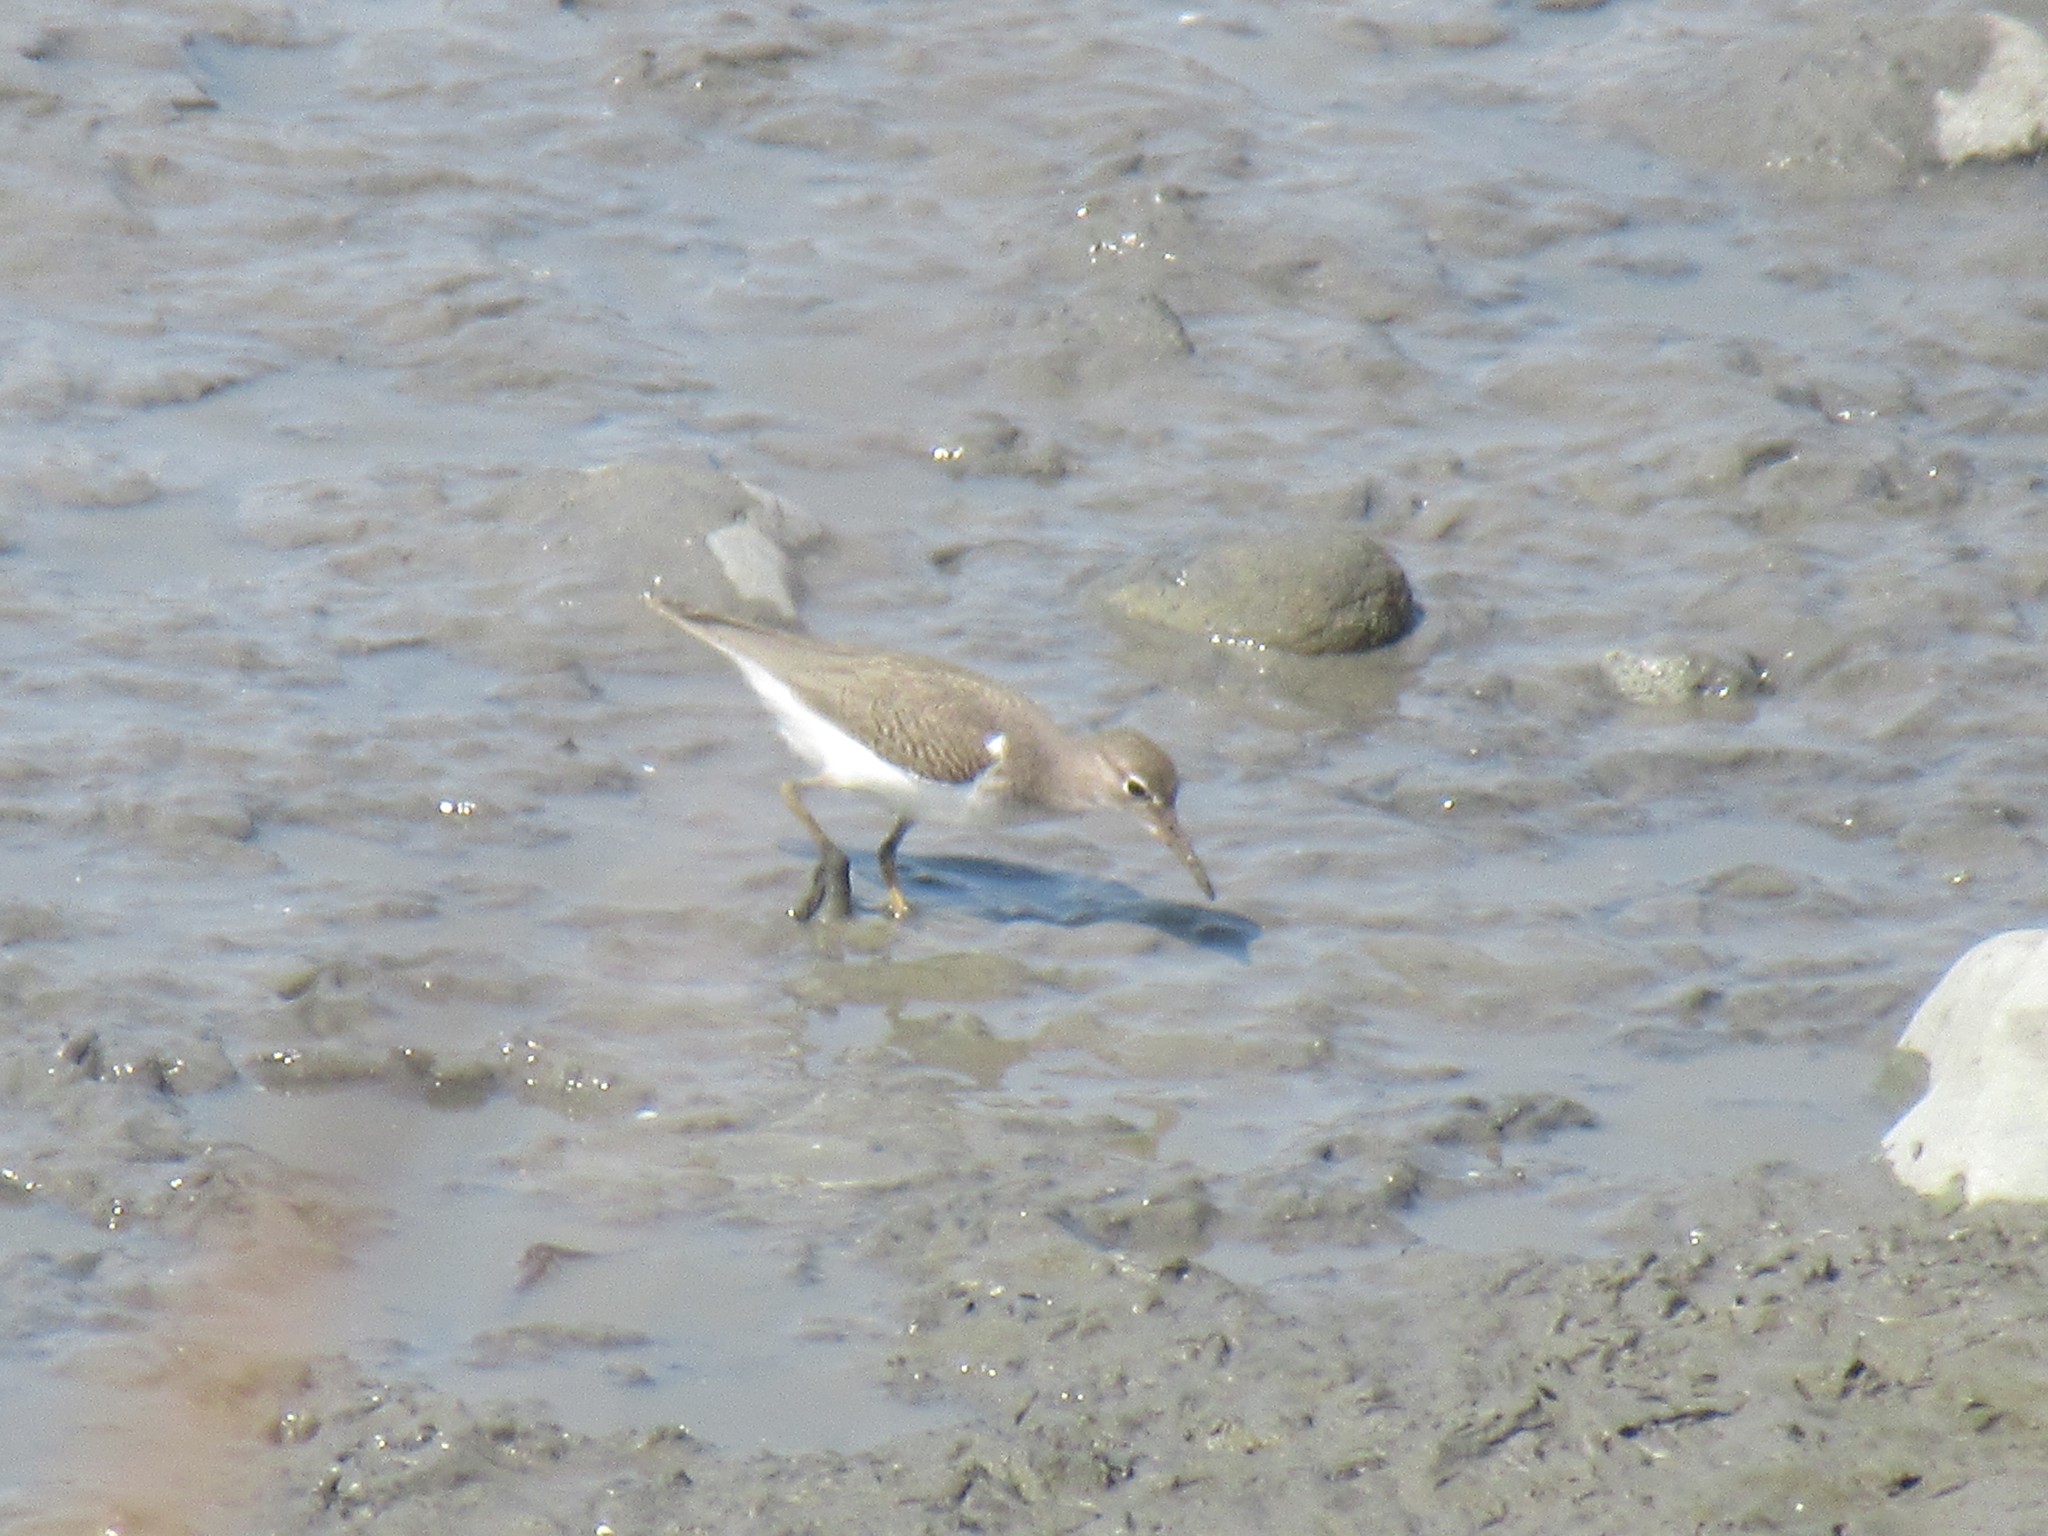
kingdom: Animalia
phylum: Chordata
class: Aves
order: Charadriiformes
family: Scolopacidae
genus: Actitis
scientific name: Actitis macularius
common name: Spotted sandpiper
